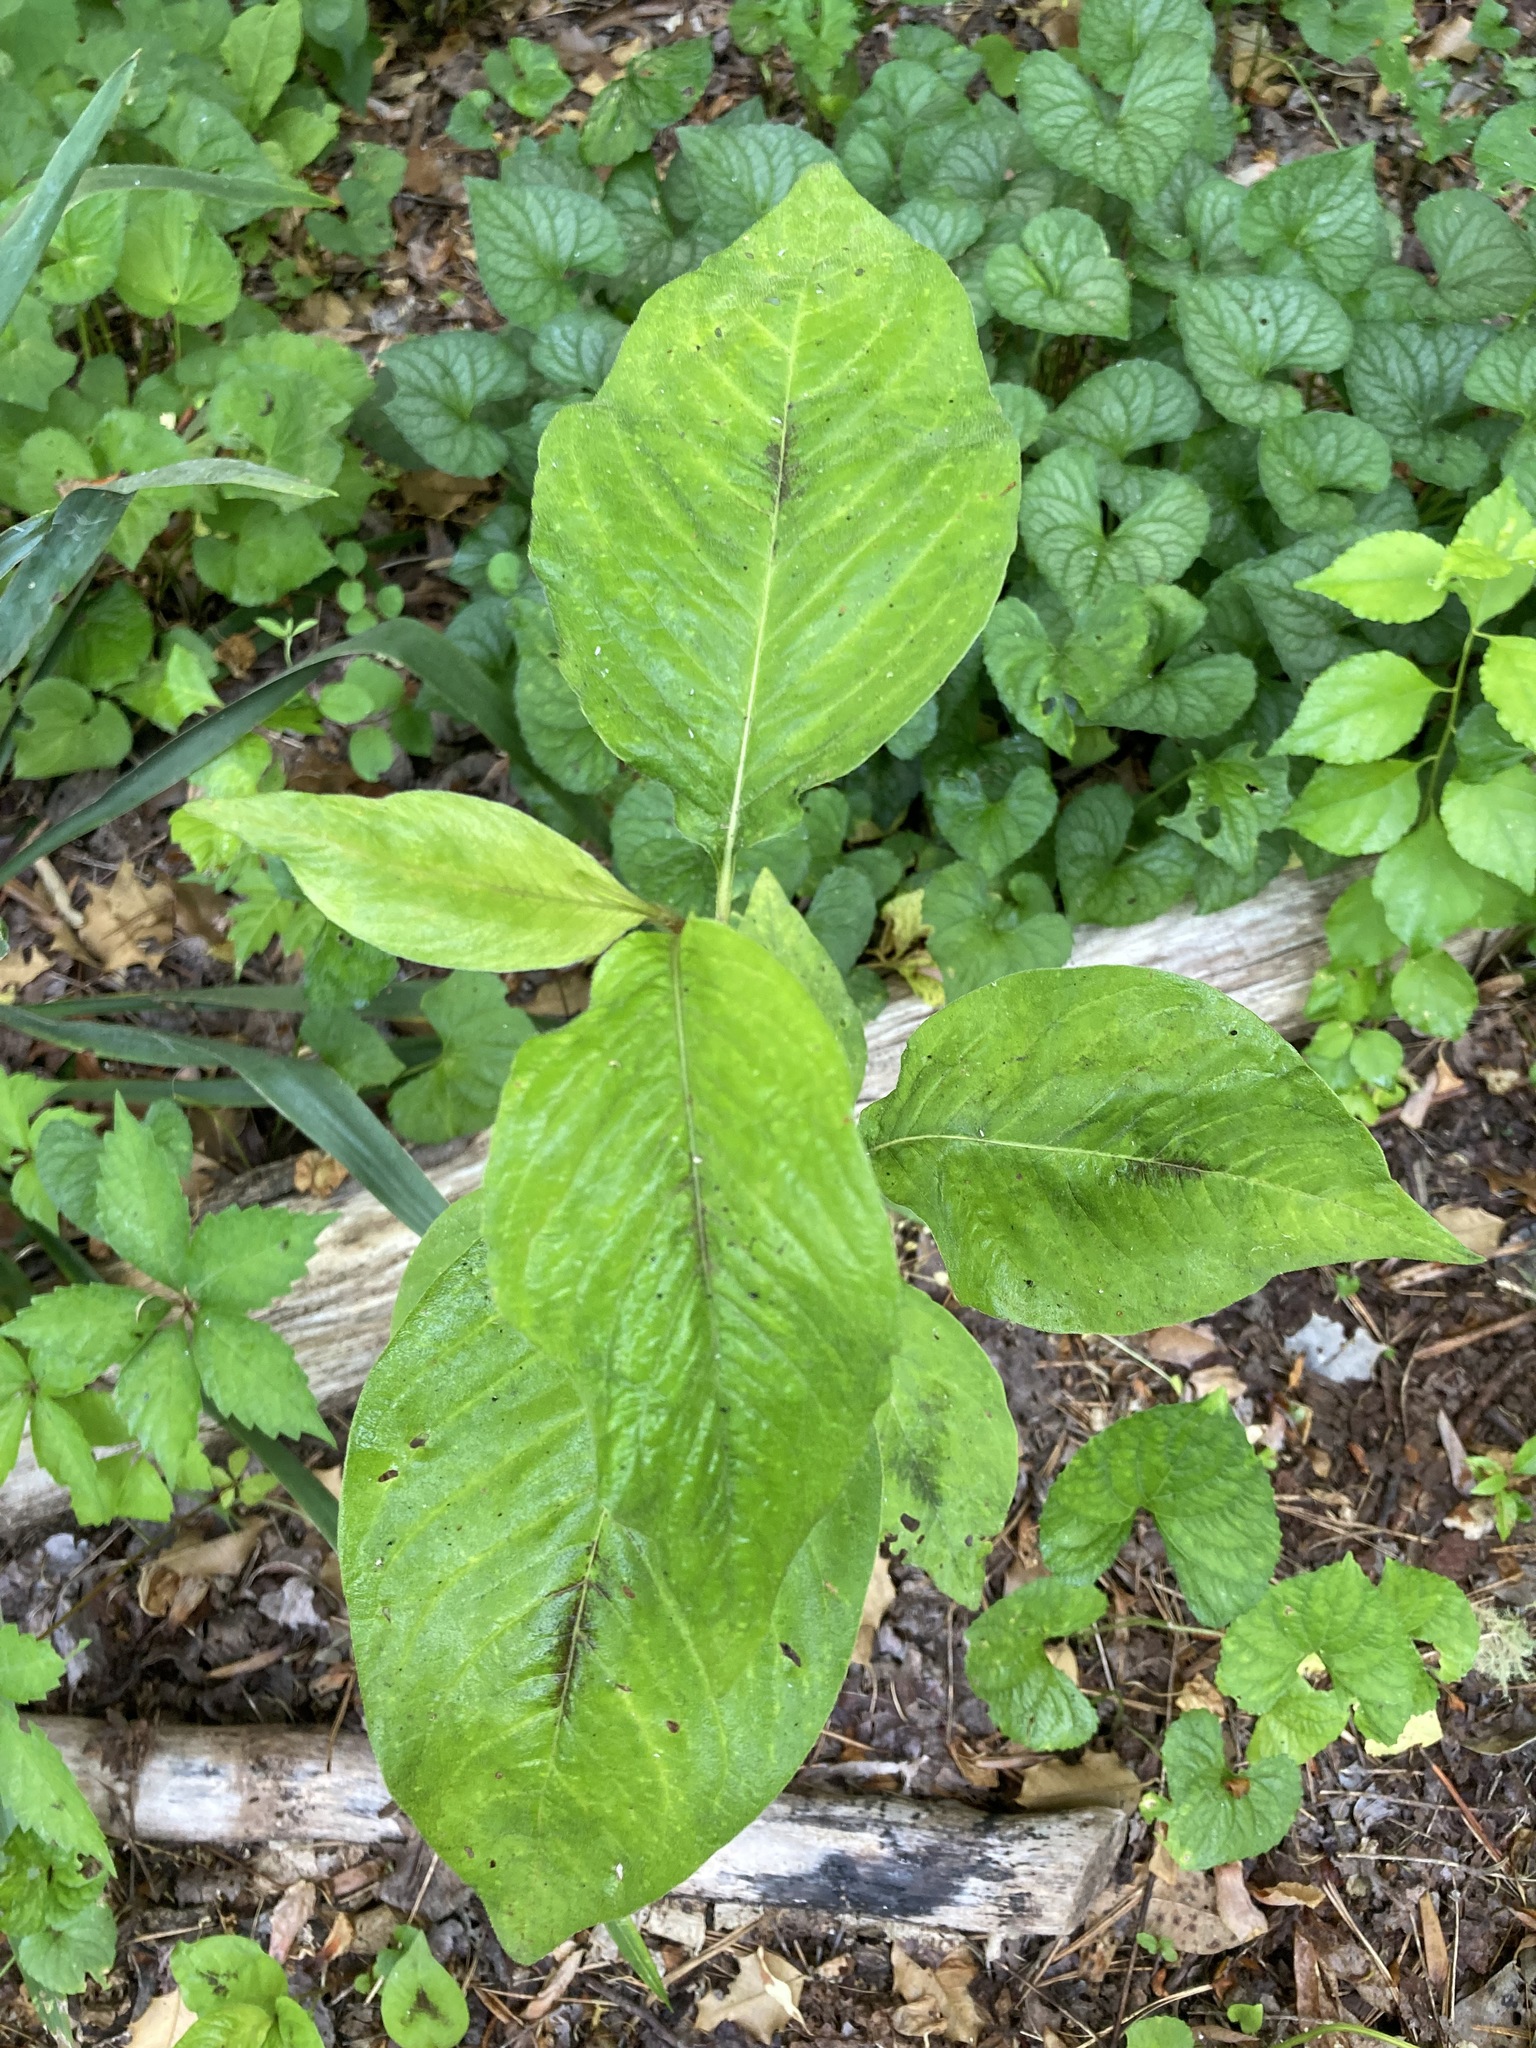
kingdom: Plantae
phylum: Tracheophyta
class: Magnoliopsida
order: Caryophyllales
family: Polygonaceae
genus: Persicaria
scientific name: Persicaria virginiana
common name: Jumpseed
